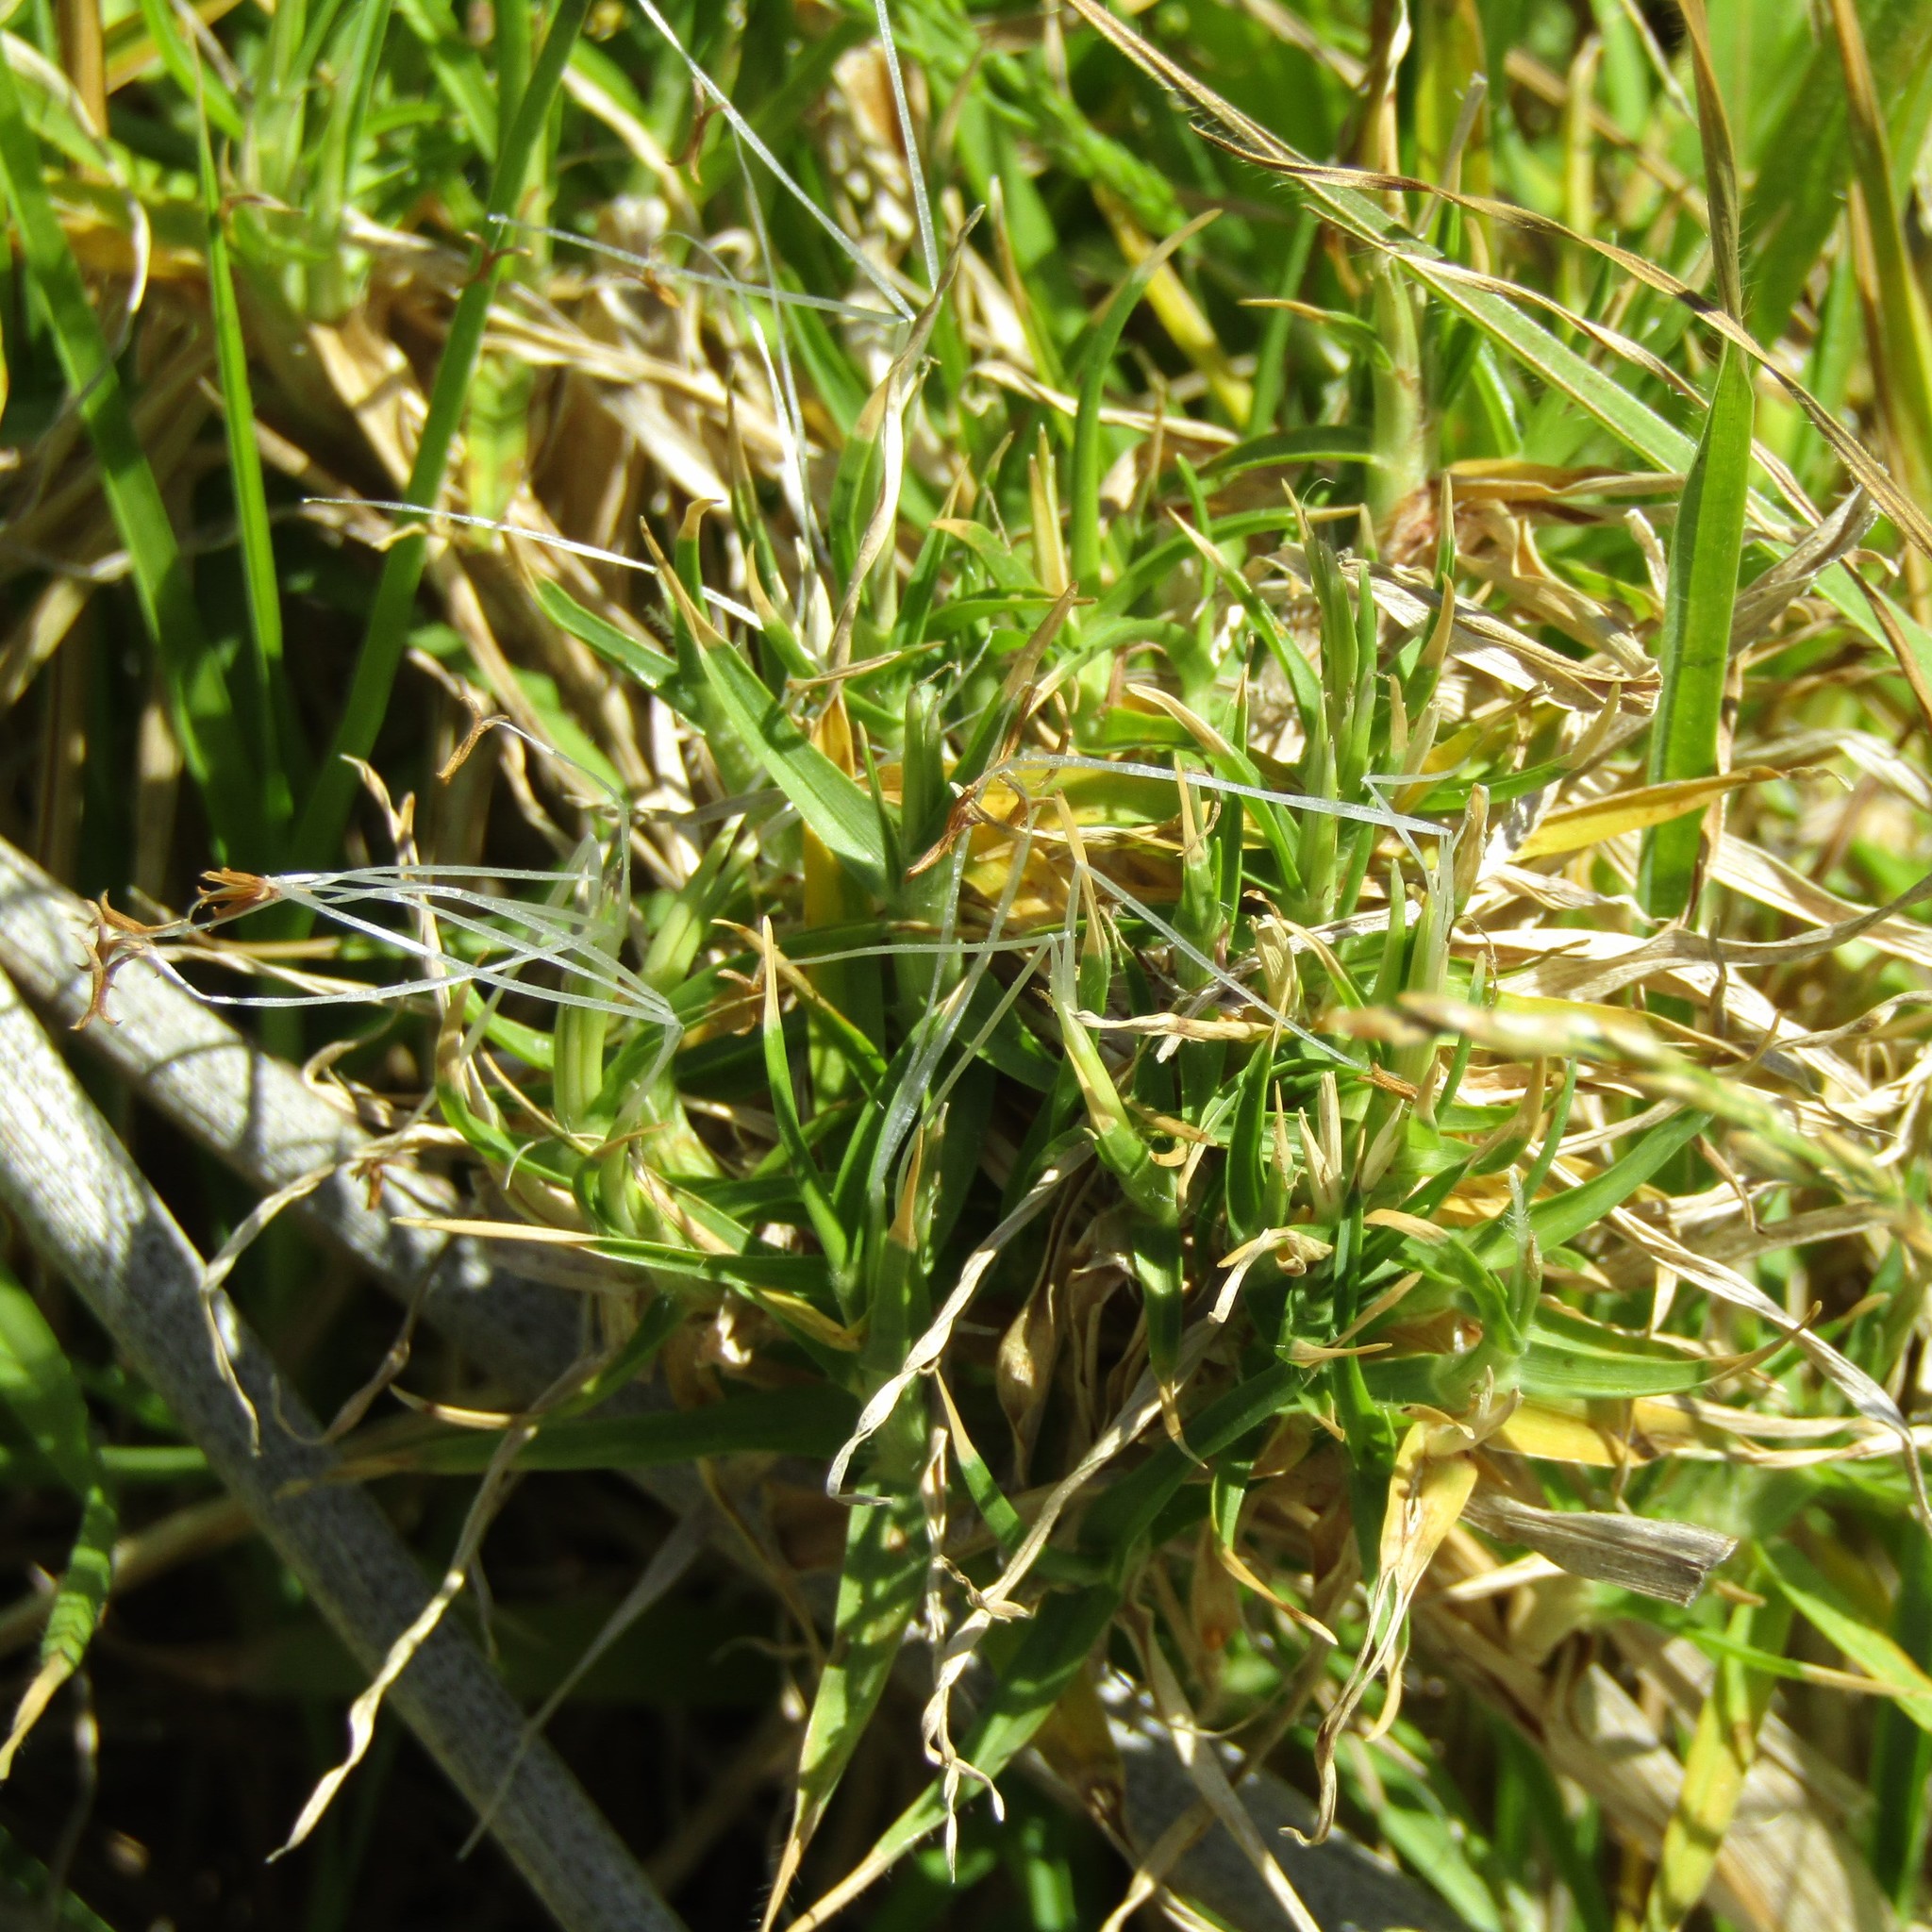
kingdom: Plantae
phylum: Tracheophyta
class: Liliopsida
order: Poales
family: Poaceae
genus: Cenchrus
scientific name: Cenchrus clandestinus
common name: Kikuyugrass
